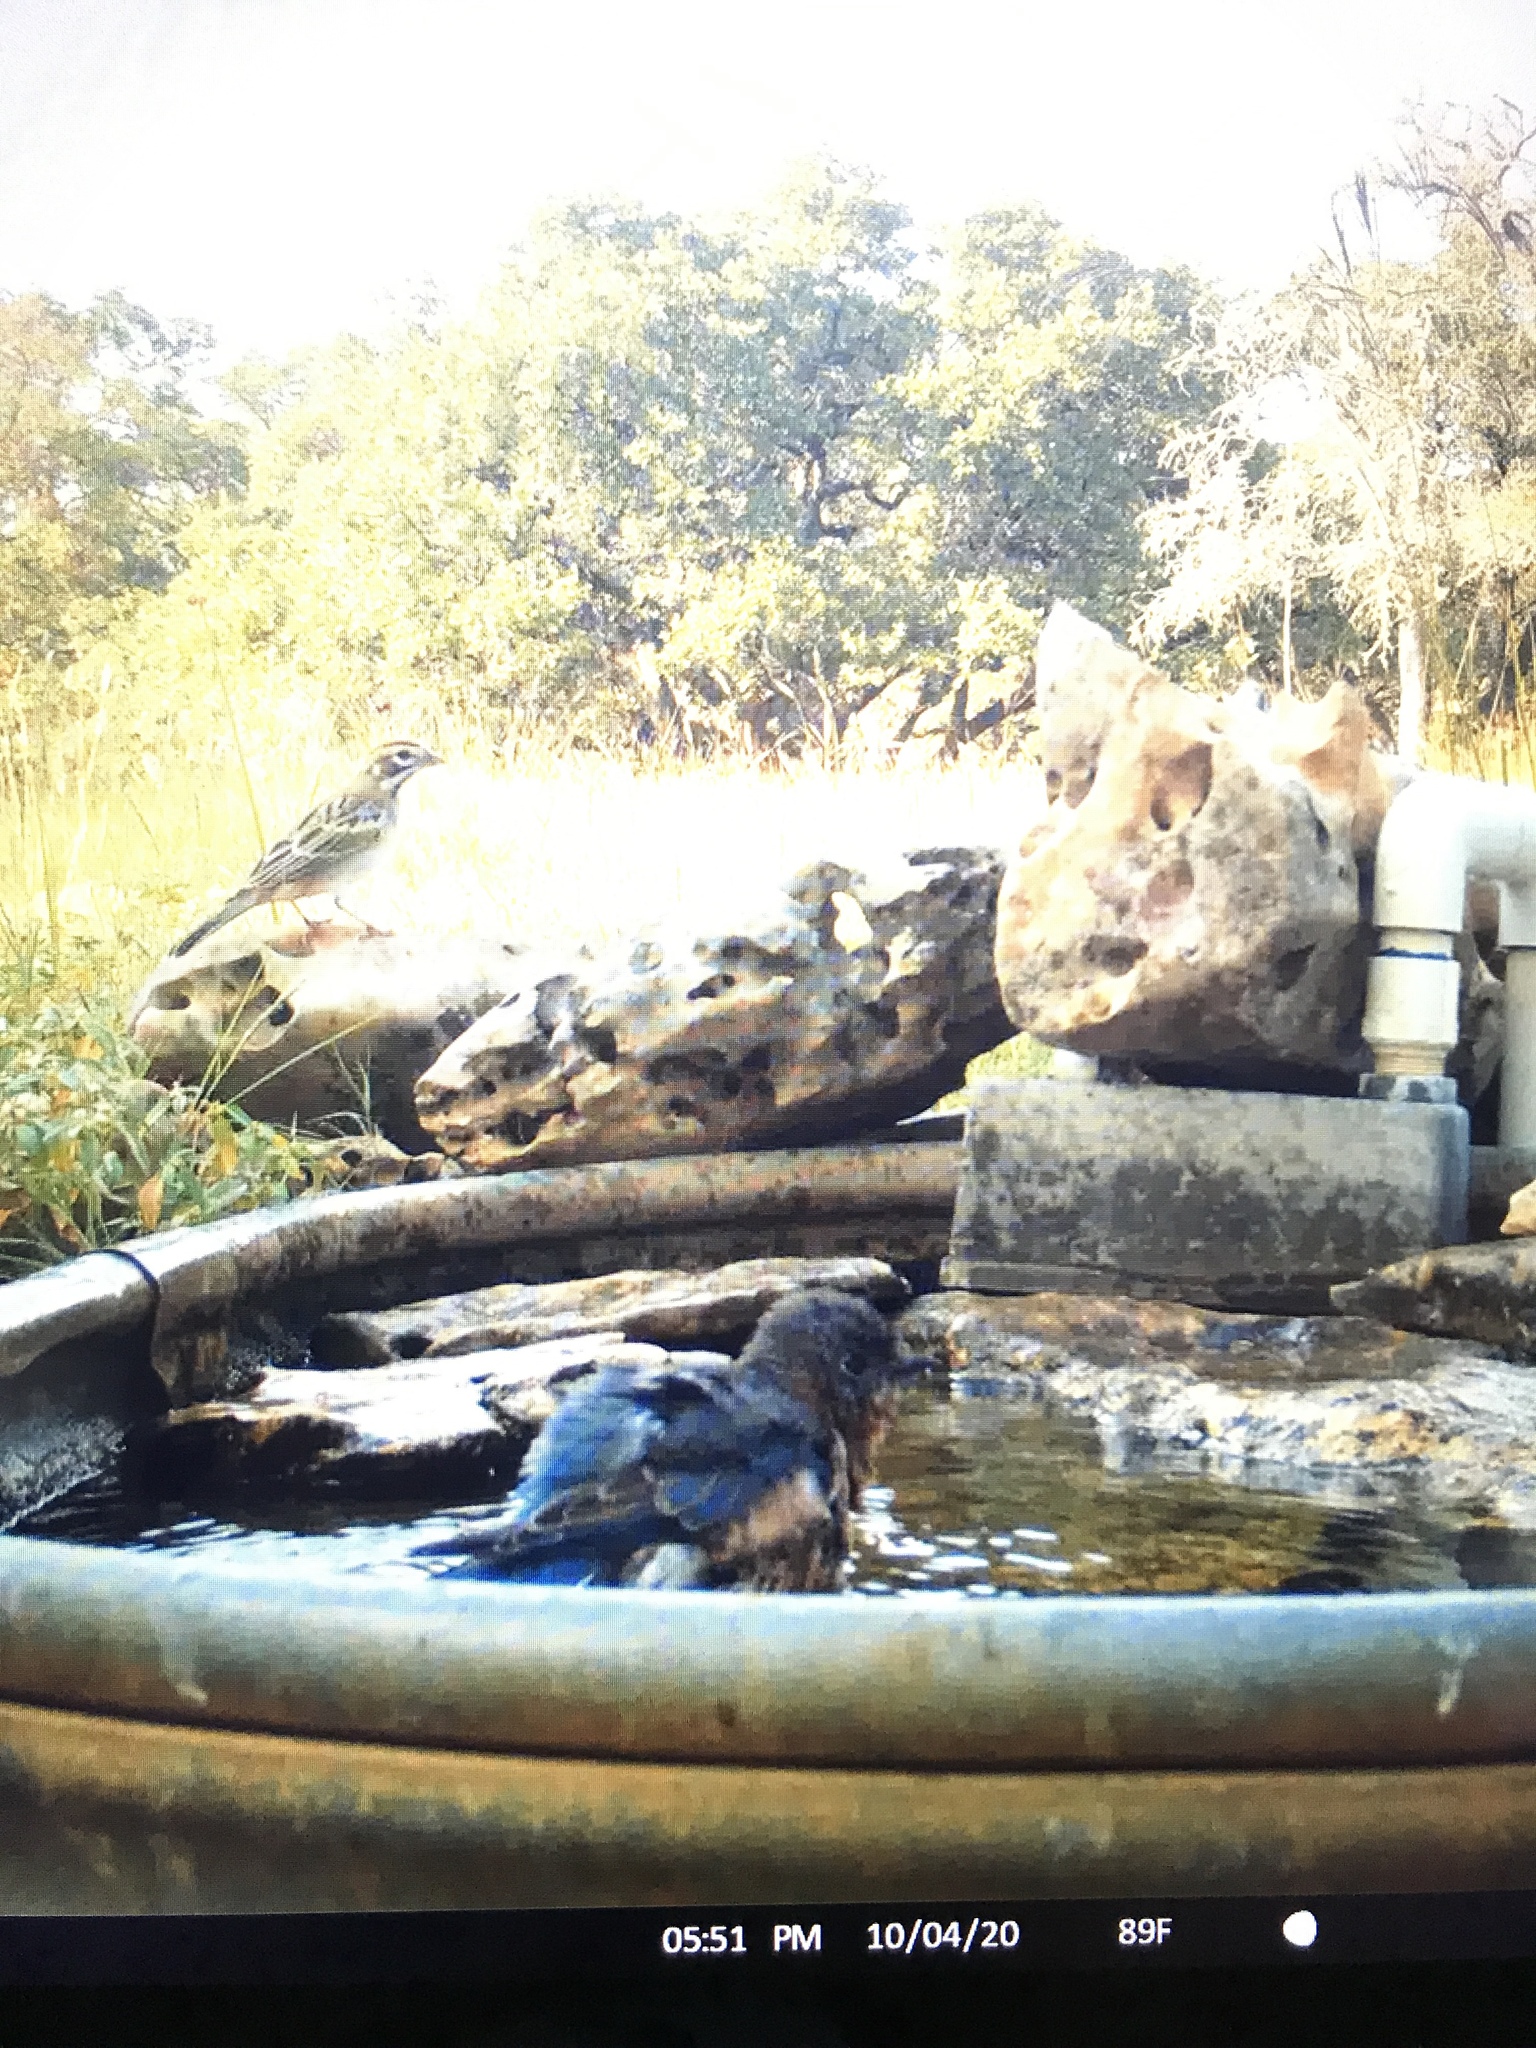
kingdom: Animalia
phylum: Chordata
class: Aves
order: Passeriformes
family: Turdidae
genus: Sialia
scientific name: Sialia sialis
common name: Eastern bluebird
